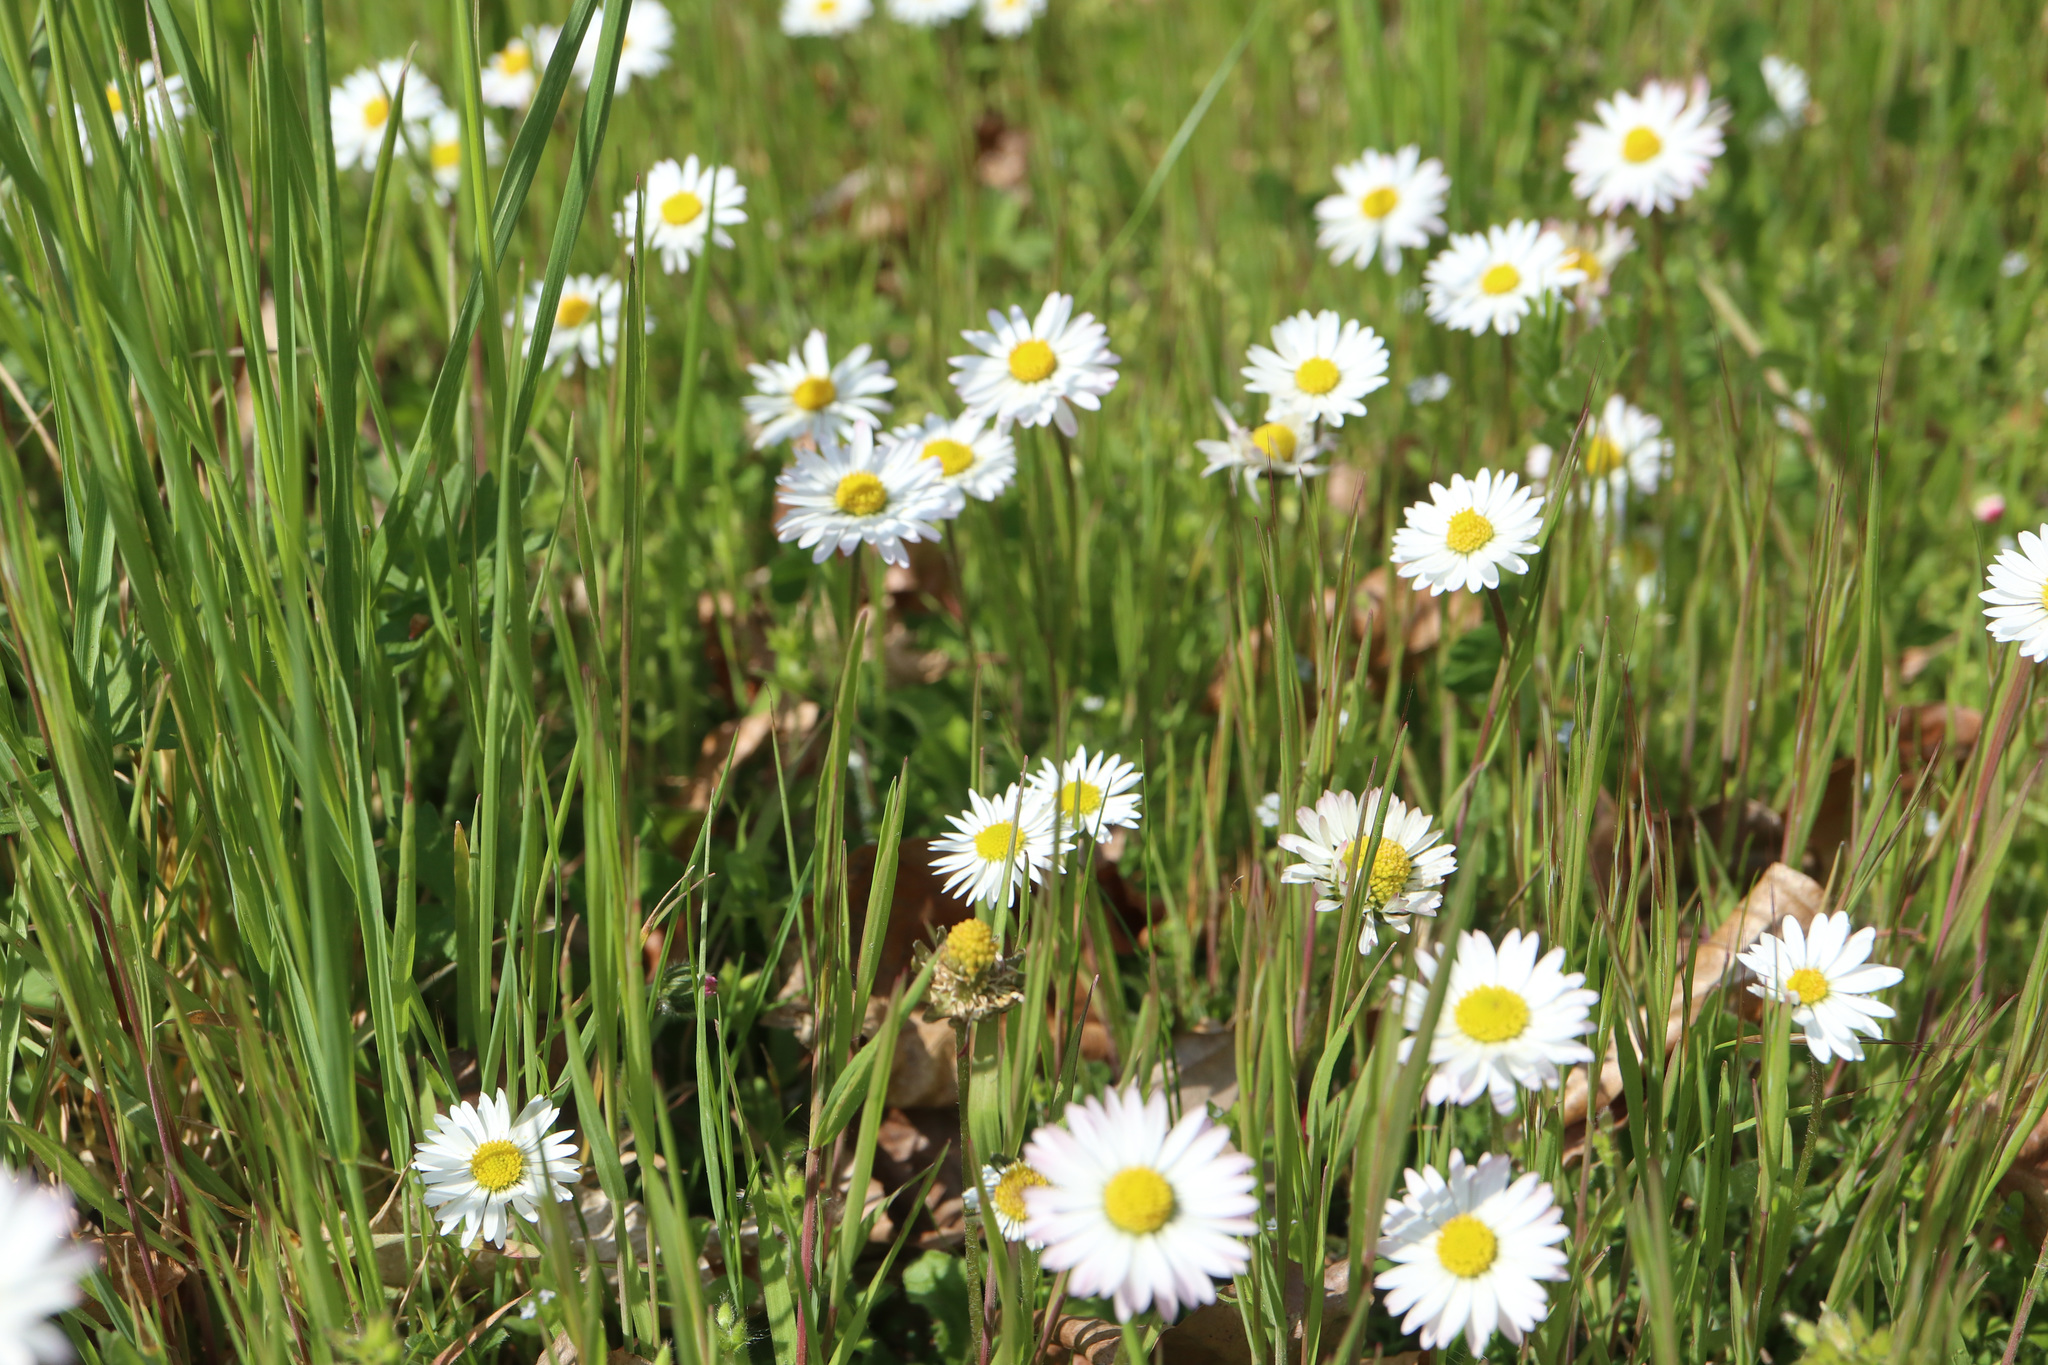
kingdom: Plantae
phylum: Tracheophyta
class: Magnoliopsida
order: Asterales
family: Asteraceae
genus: Bellis
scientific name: Bellis perennis
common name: Lawndaisy
